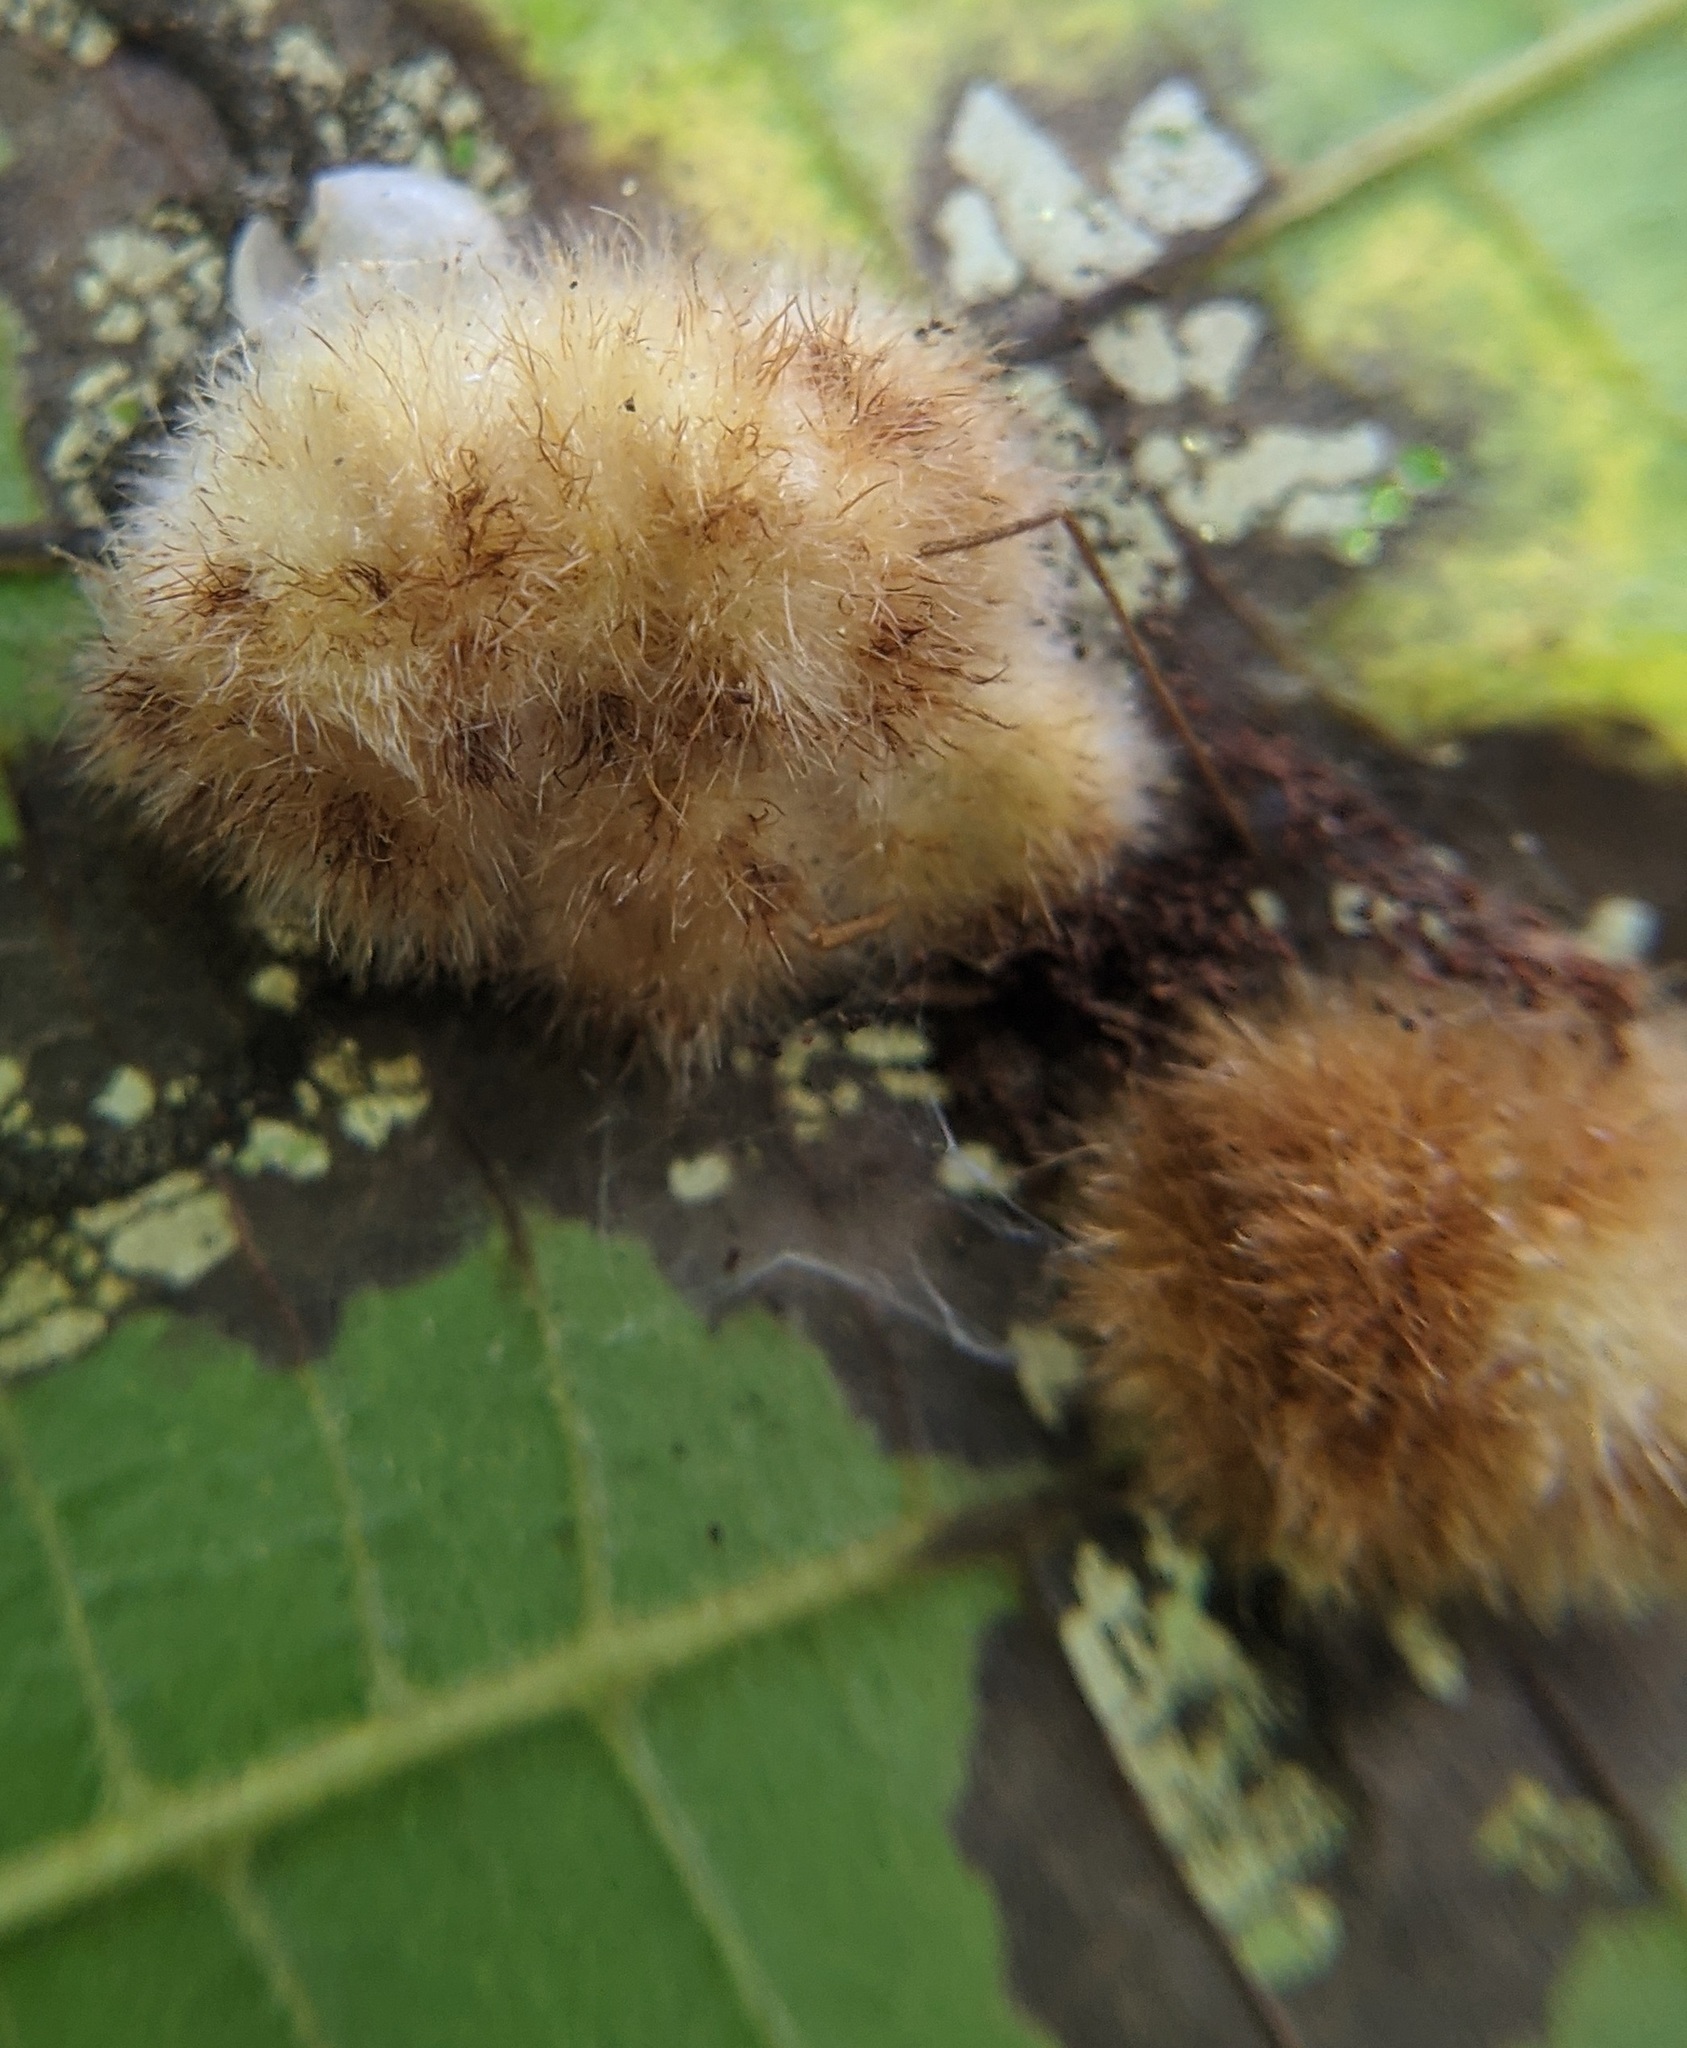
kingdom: Animalia
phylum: Arthropoda
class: Insecta
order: Diptera
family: Cecidomyiidae
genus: Caryomyia
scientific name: Caryomyia aggregata
